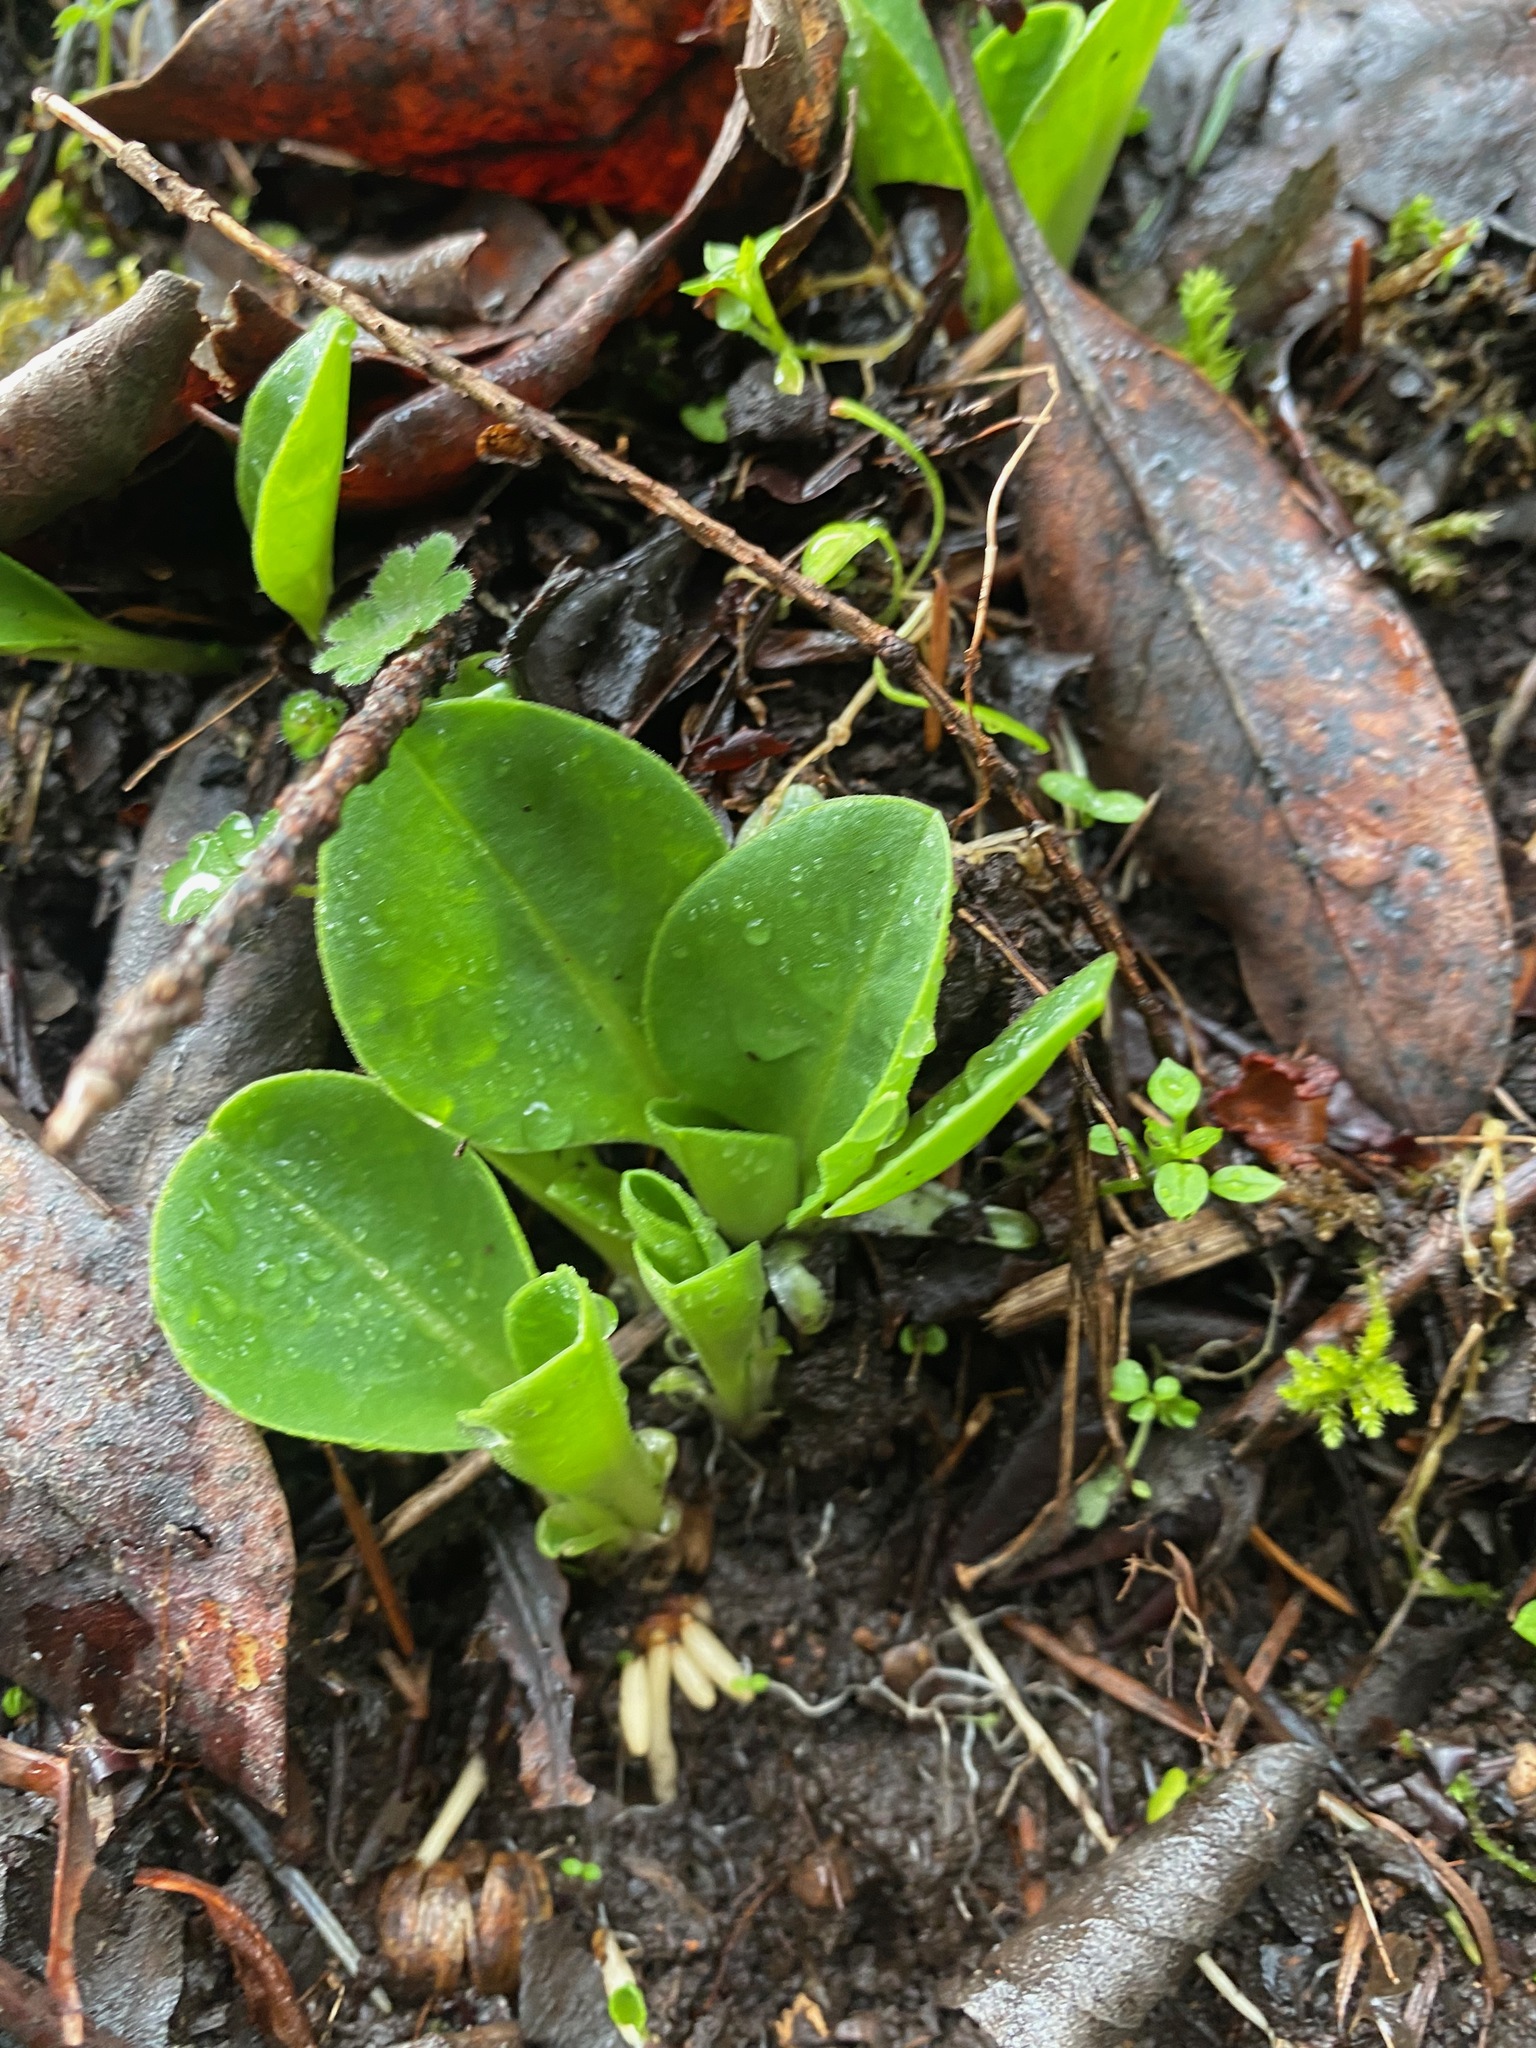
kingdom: Plantae
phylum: Tracheophyta
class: Magnoliopsida
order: Ericales
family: Primulaceae
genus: Dodecatheon
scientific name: Dodecatheon hendersonii
